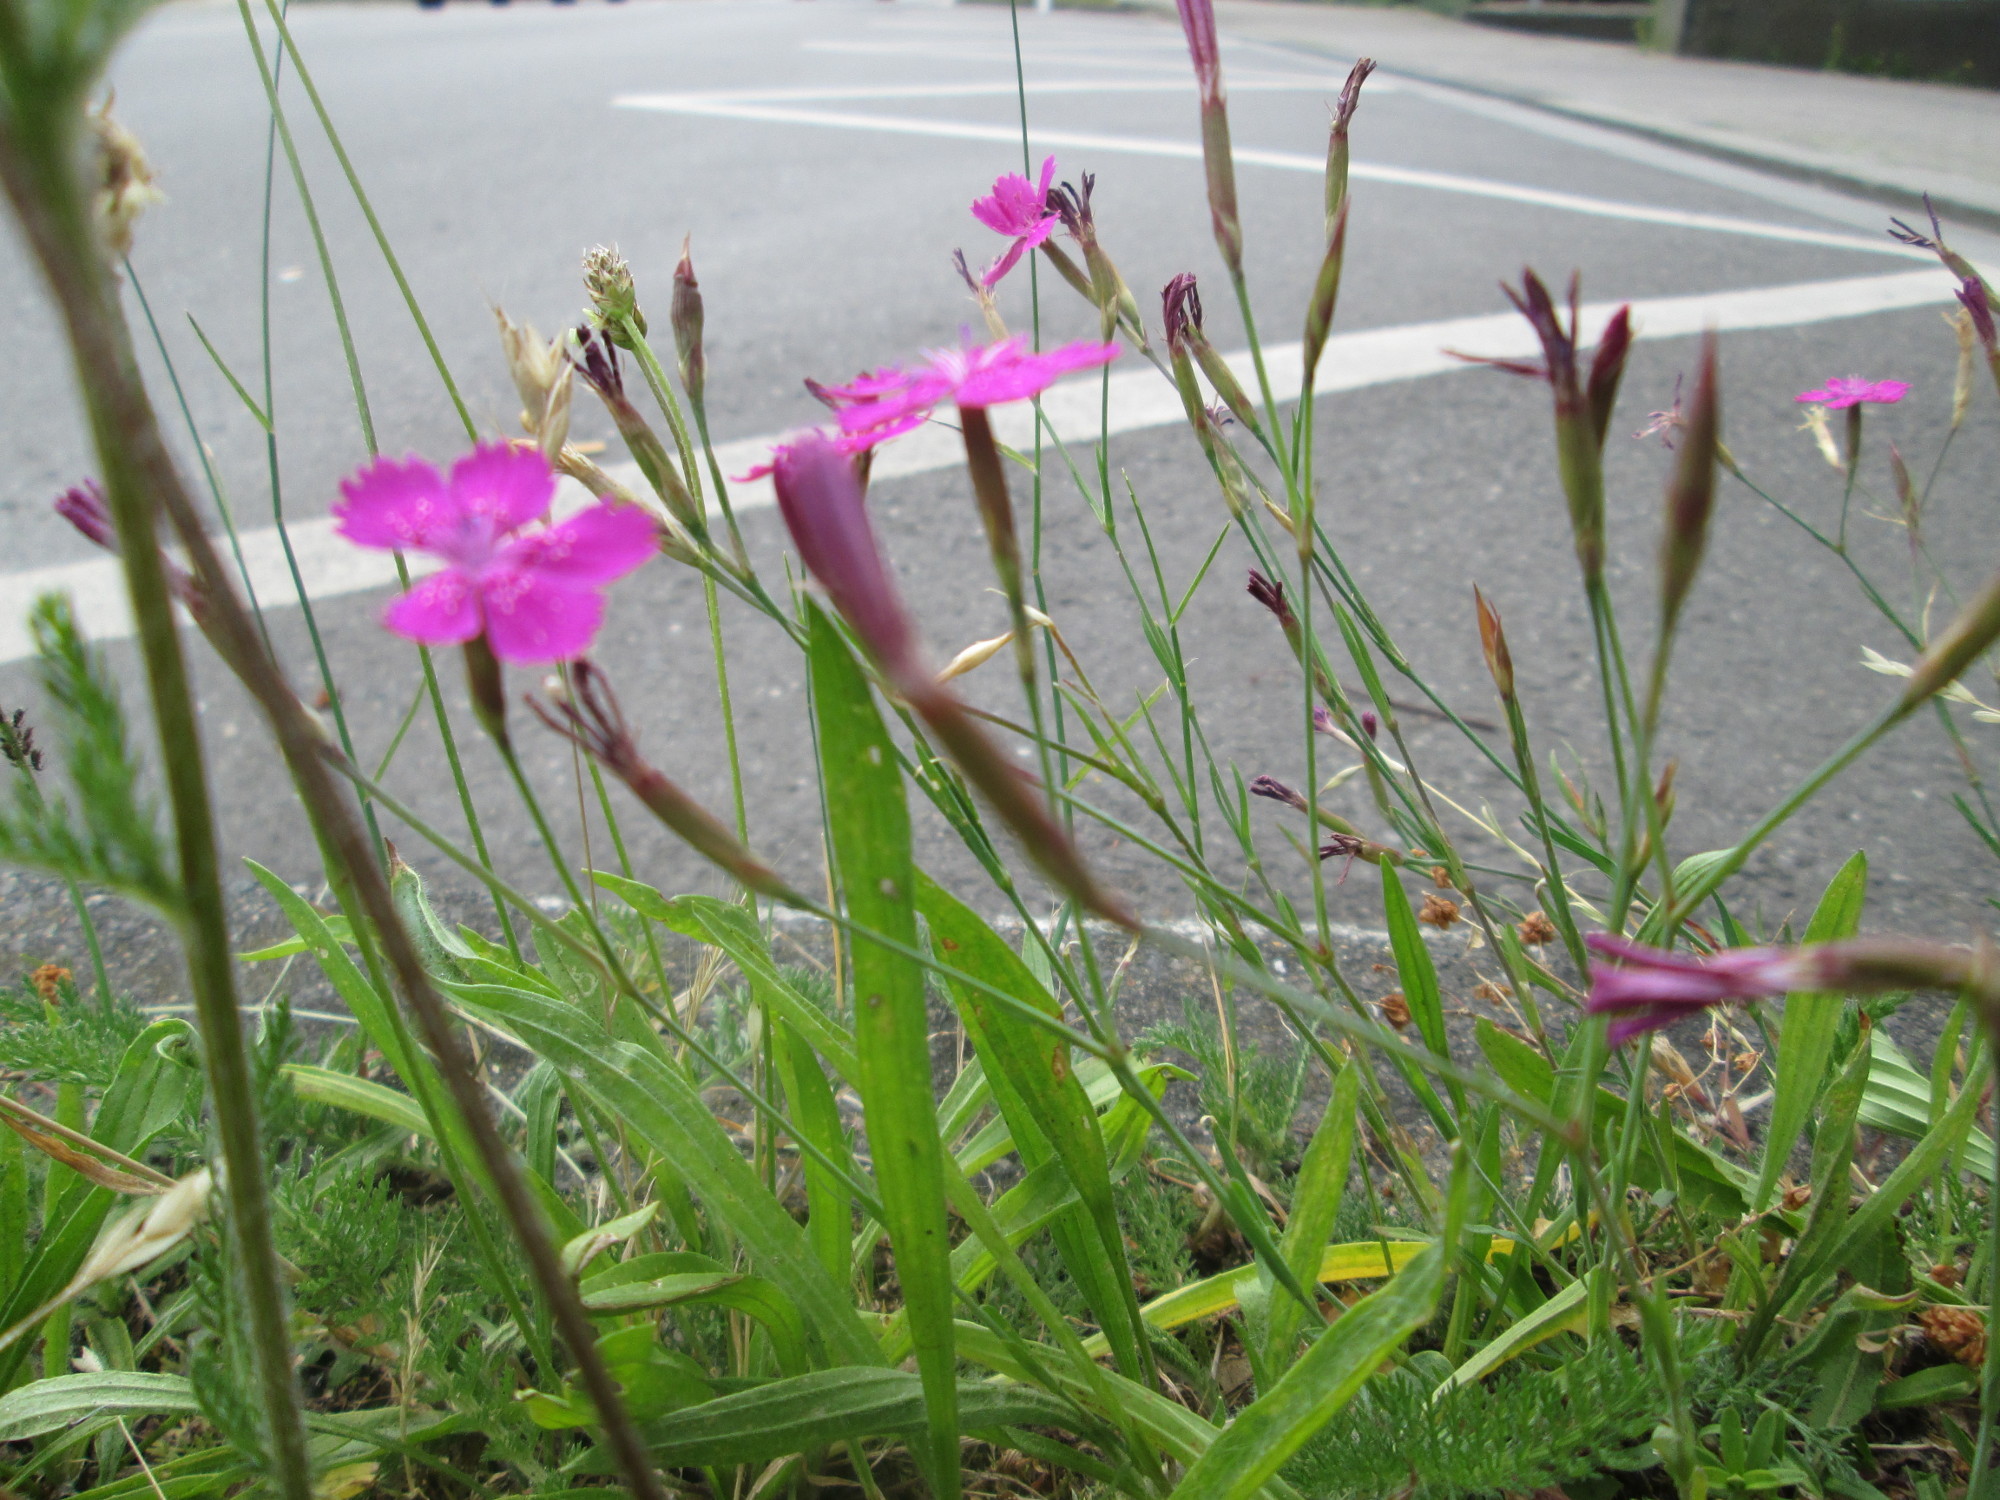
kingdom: Plantae
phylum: Tracheophyta
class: Magnoliopsida
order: Caryophyllales
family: Caryophyllaceae
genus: Dianthus
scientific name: Dianthus deltoides
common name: Maiden pink
